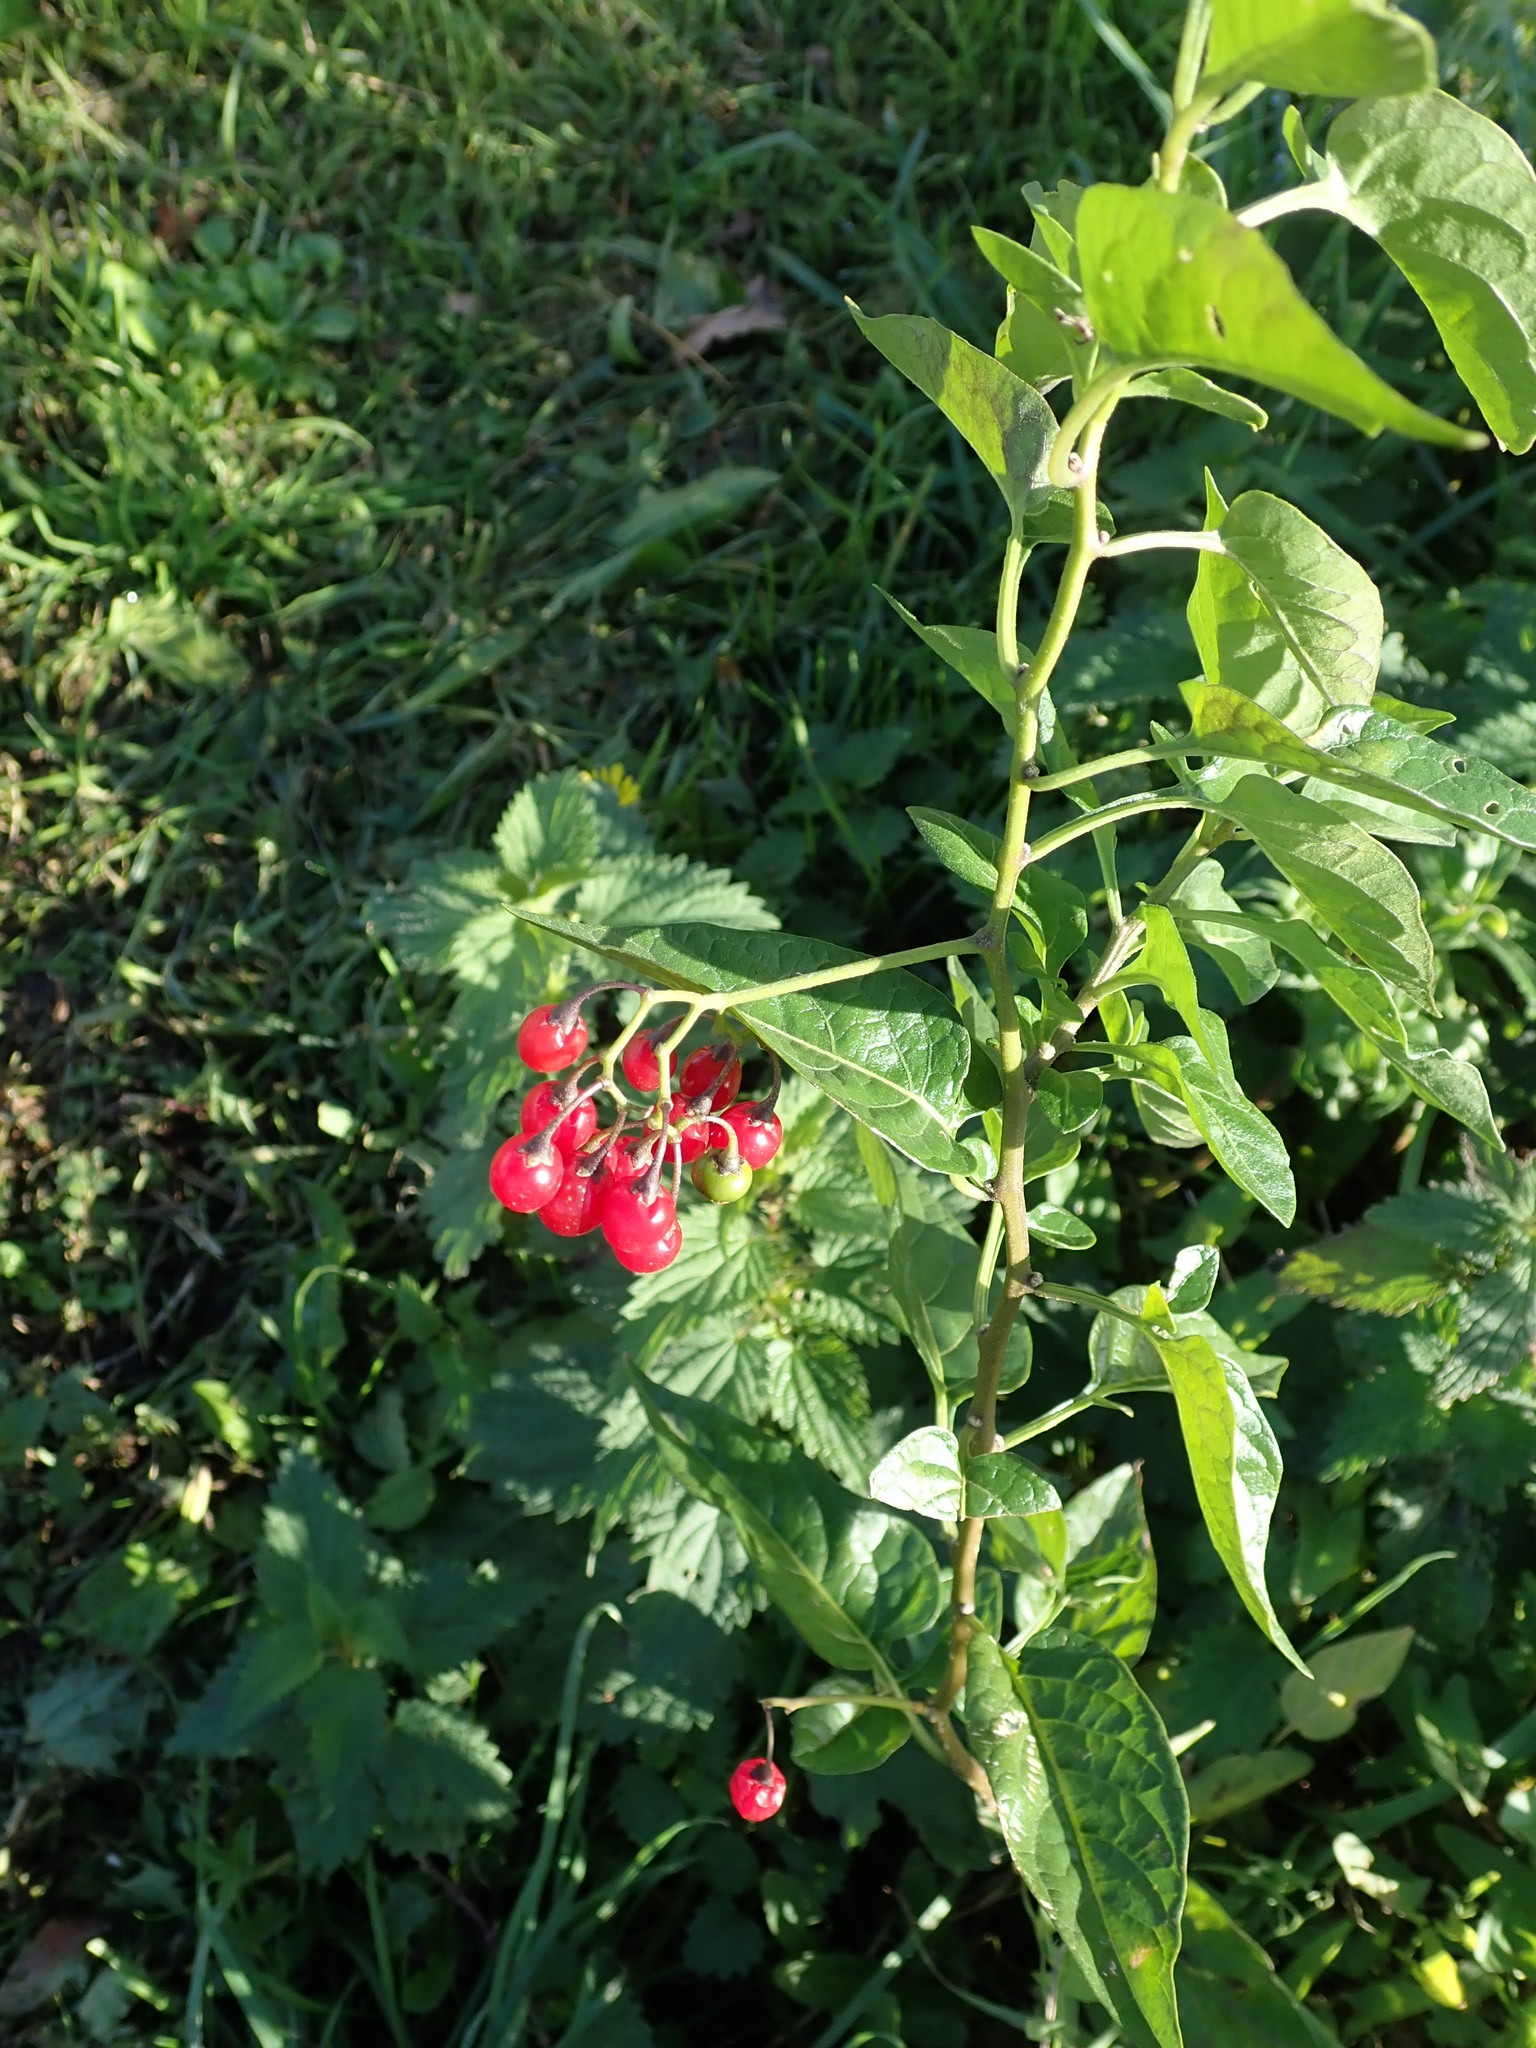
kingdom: Plantae
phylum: Tracheophyta
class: Magnoliopsida
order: Solanales
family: Solanaceae
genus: Solanum
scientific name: Solanum dulcamara
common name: Climbing nightshade
